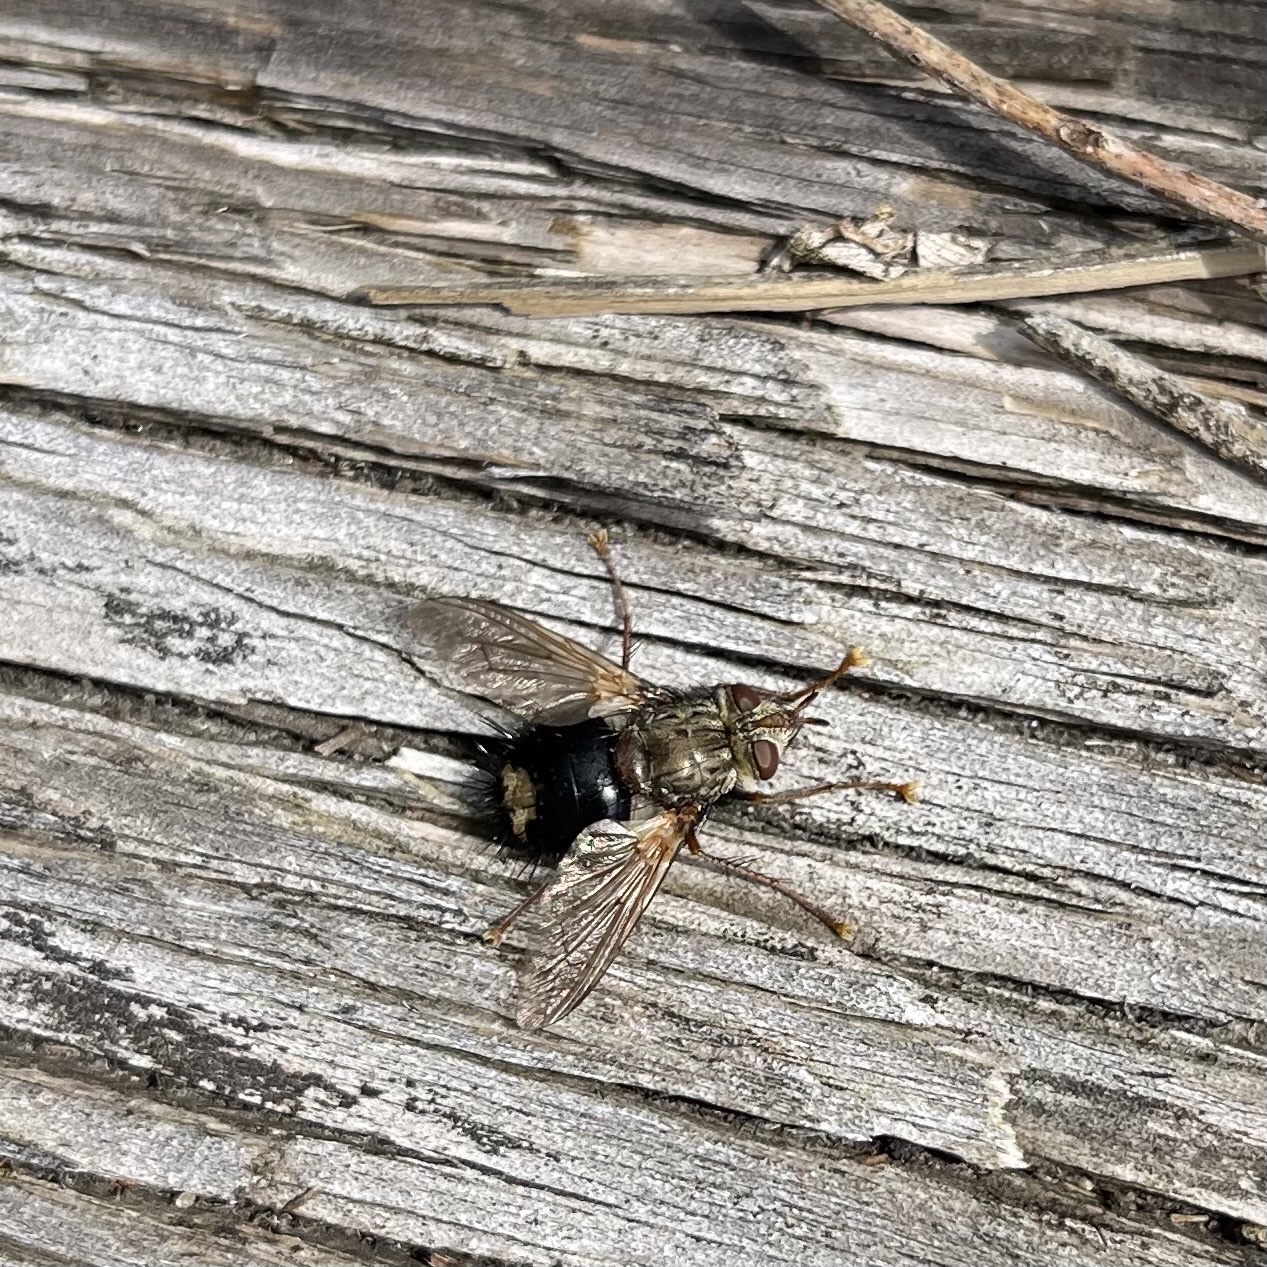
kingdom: Animalia
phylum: Arthropoda
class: Insecta
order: Diptera
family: Tachinidae
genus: Epalpus
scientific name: Epalpus signifer
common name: Early tachinid fly
